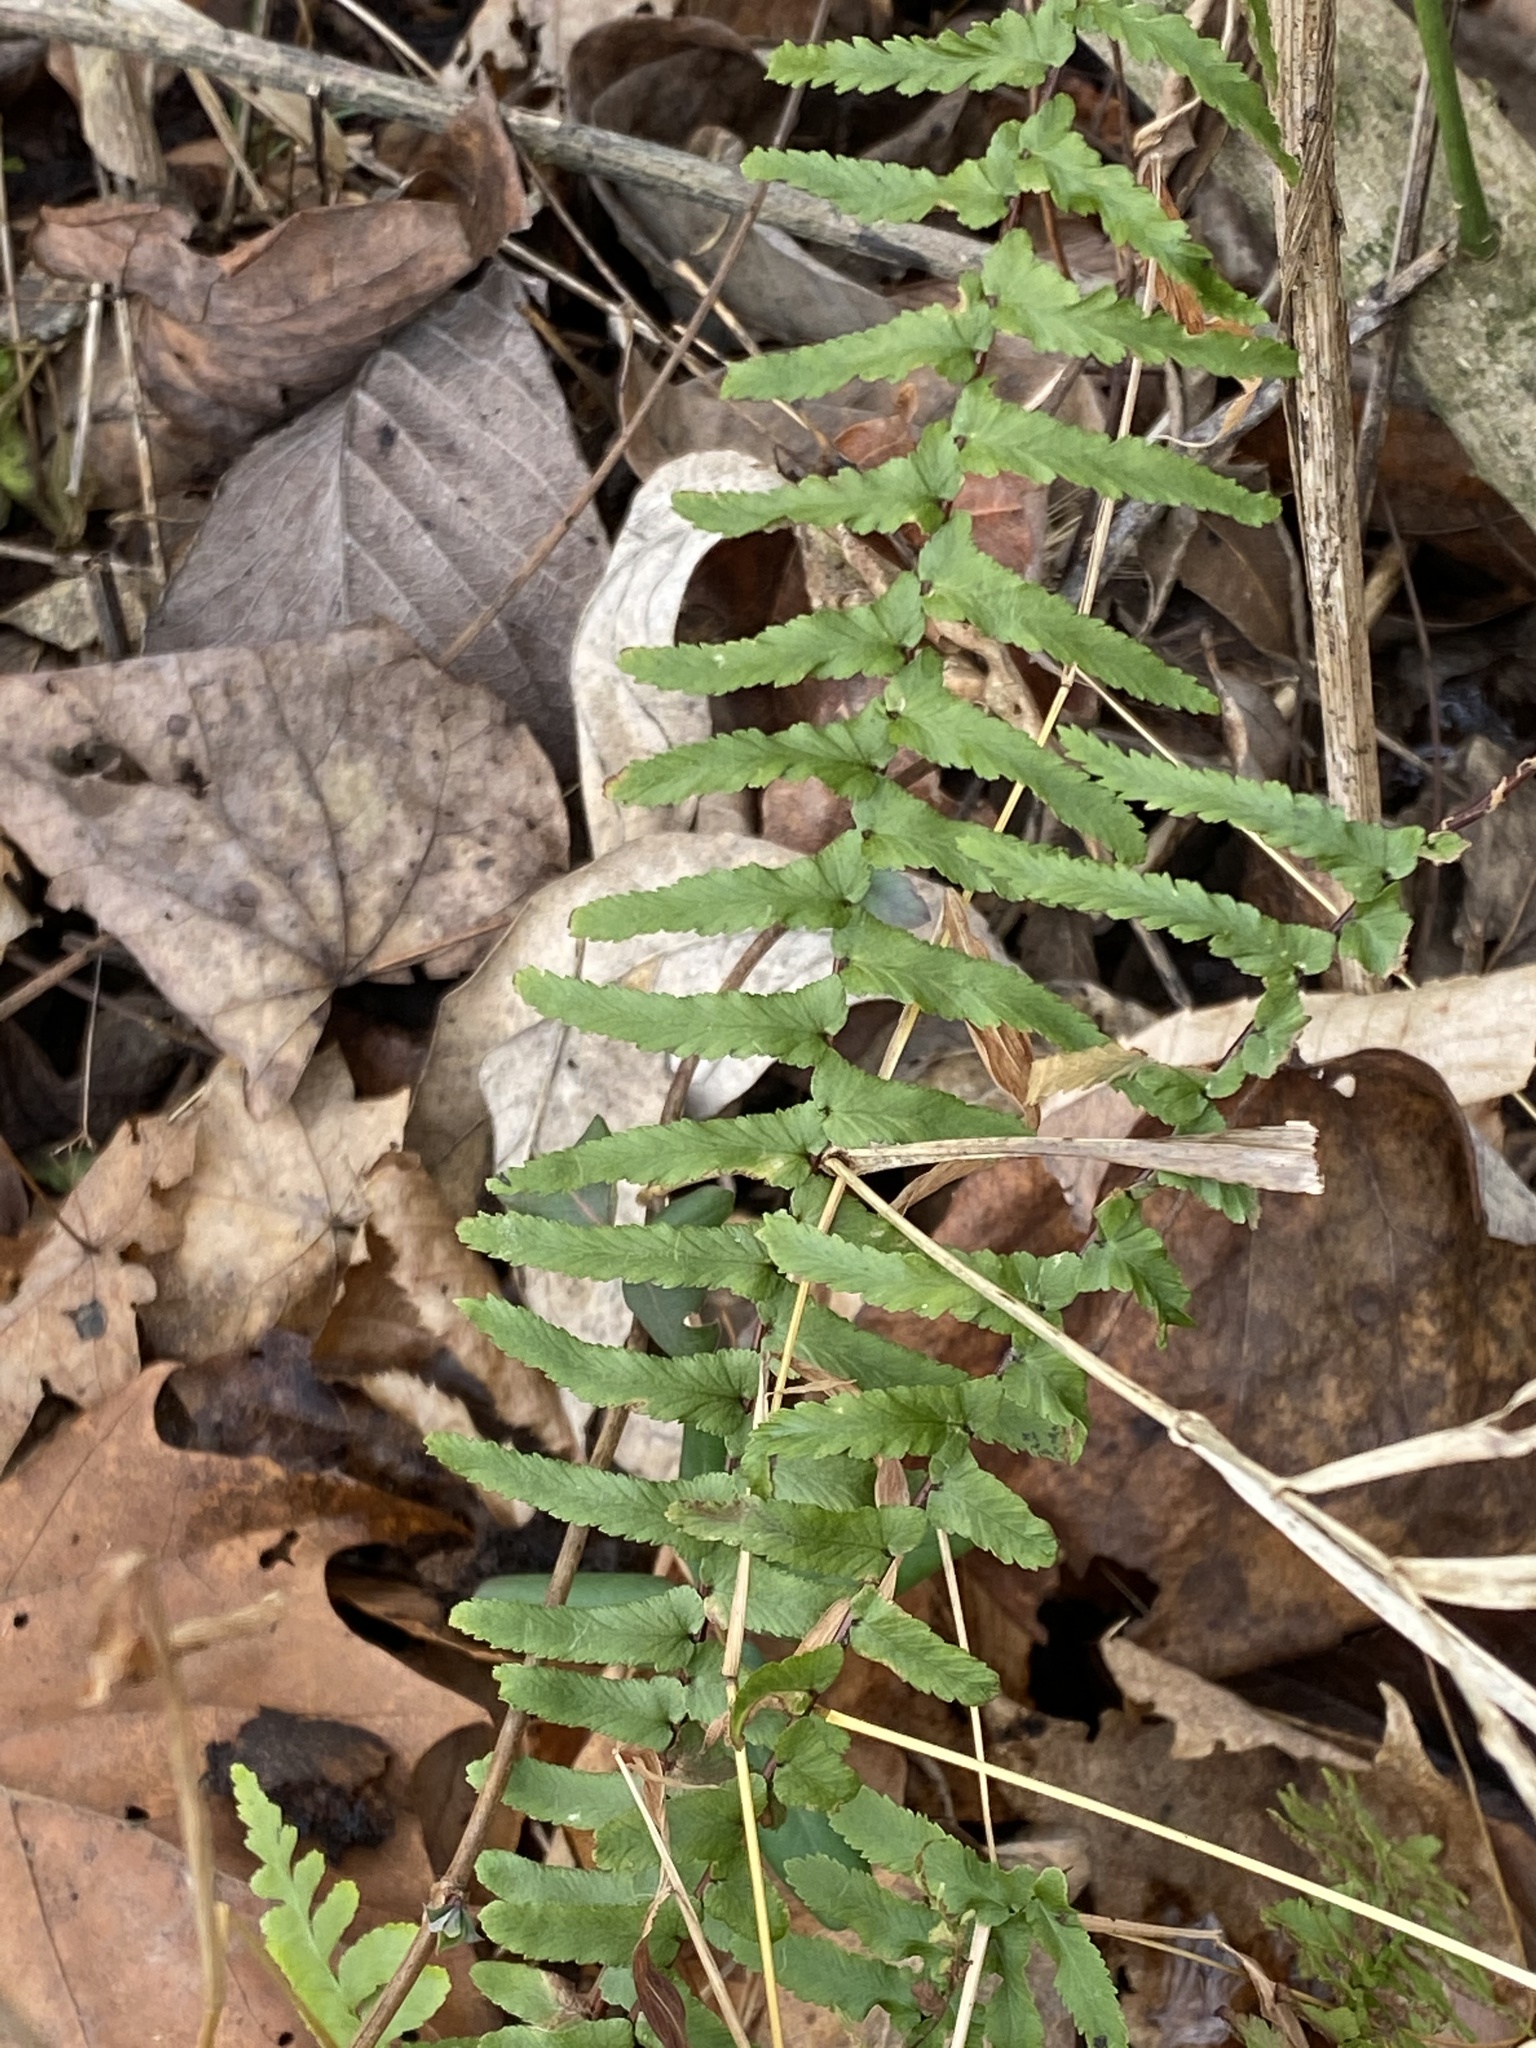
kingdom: Plantae
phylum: Tracheophyta
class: Polypodiopsida
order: Polypodiales
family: Aspleniaceae
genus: Asplenium
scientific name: Asplenium platyneuron
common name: Ebony spleenwort
